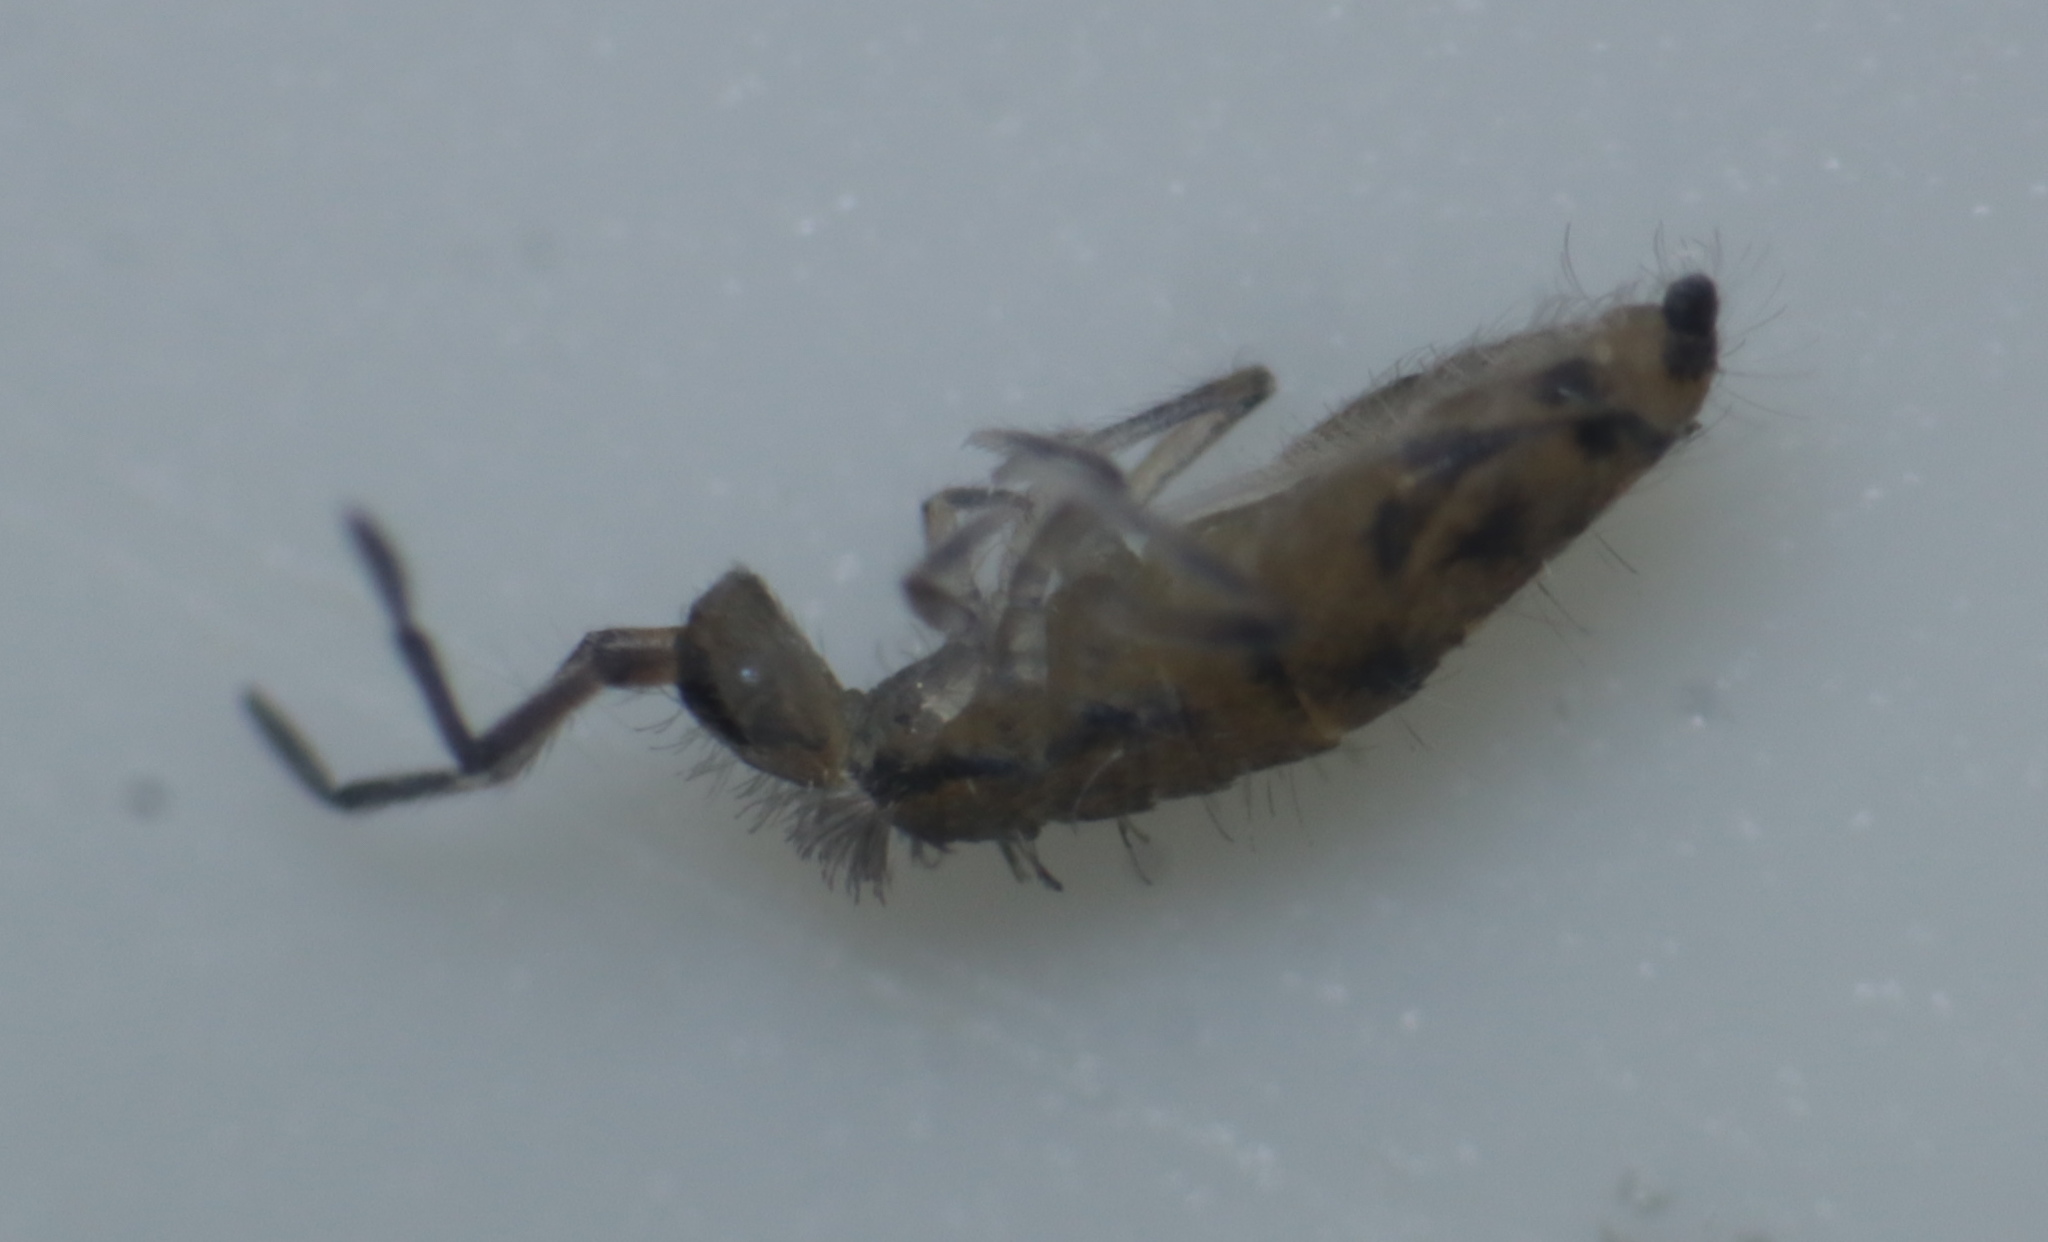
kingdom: Animalia
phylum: Arthropoda
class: Collembola
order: Entomobryomorpha
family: Entomobryidae
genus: Willowsia
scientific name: Willowsia nigromaculata
